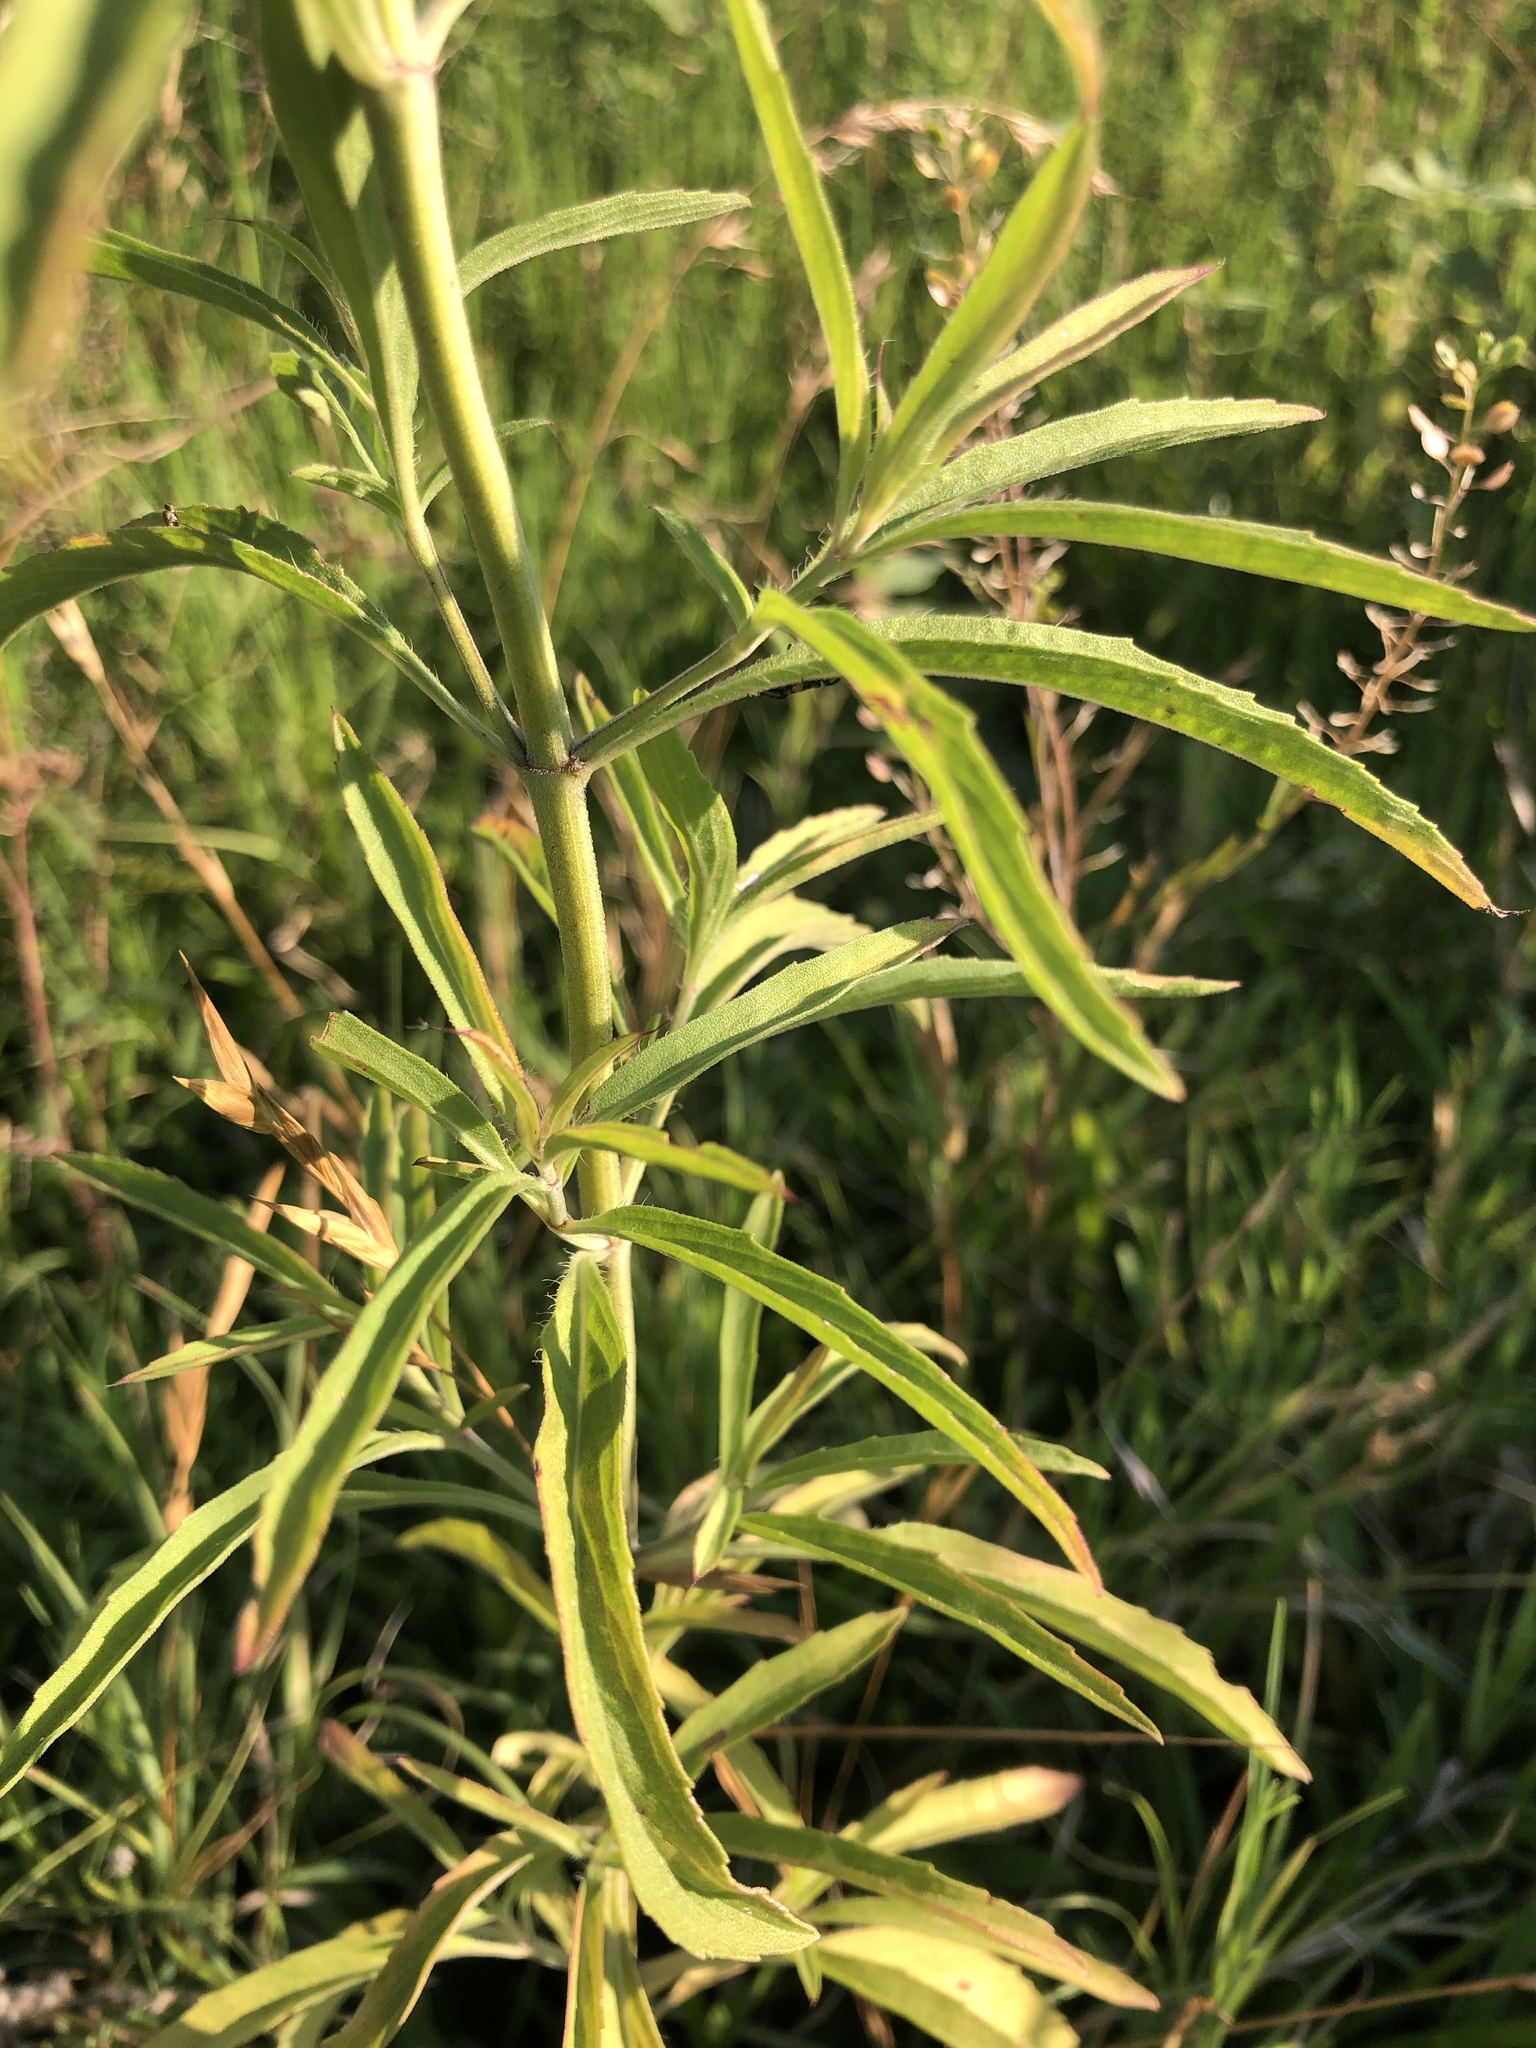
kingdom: Plantae
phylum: Tracheophyta
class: Magnoliopsida
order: Lamiales
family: Lamiaceae
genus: Monarda
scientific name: Monarda citriodora
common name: Lemon beebalm
